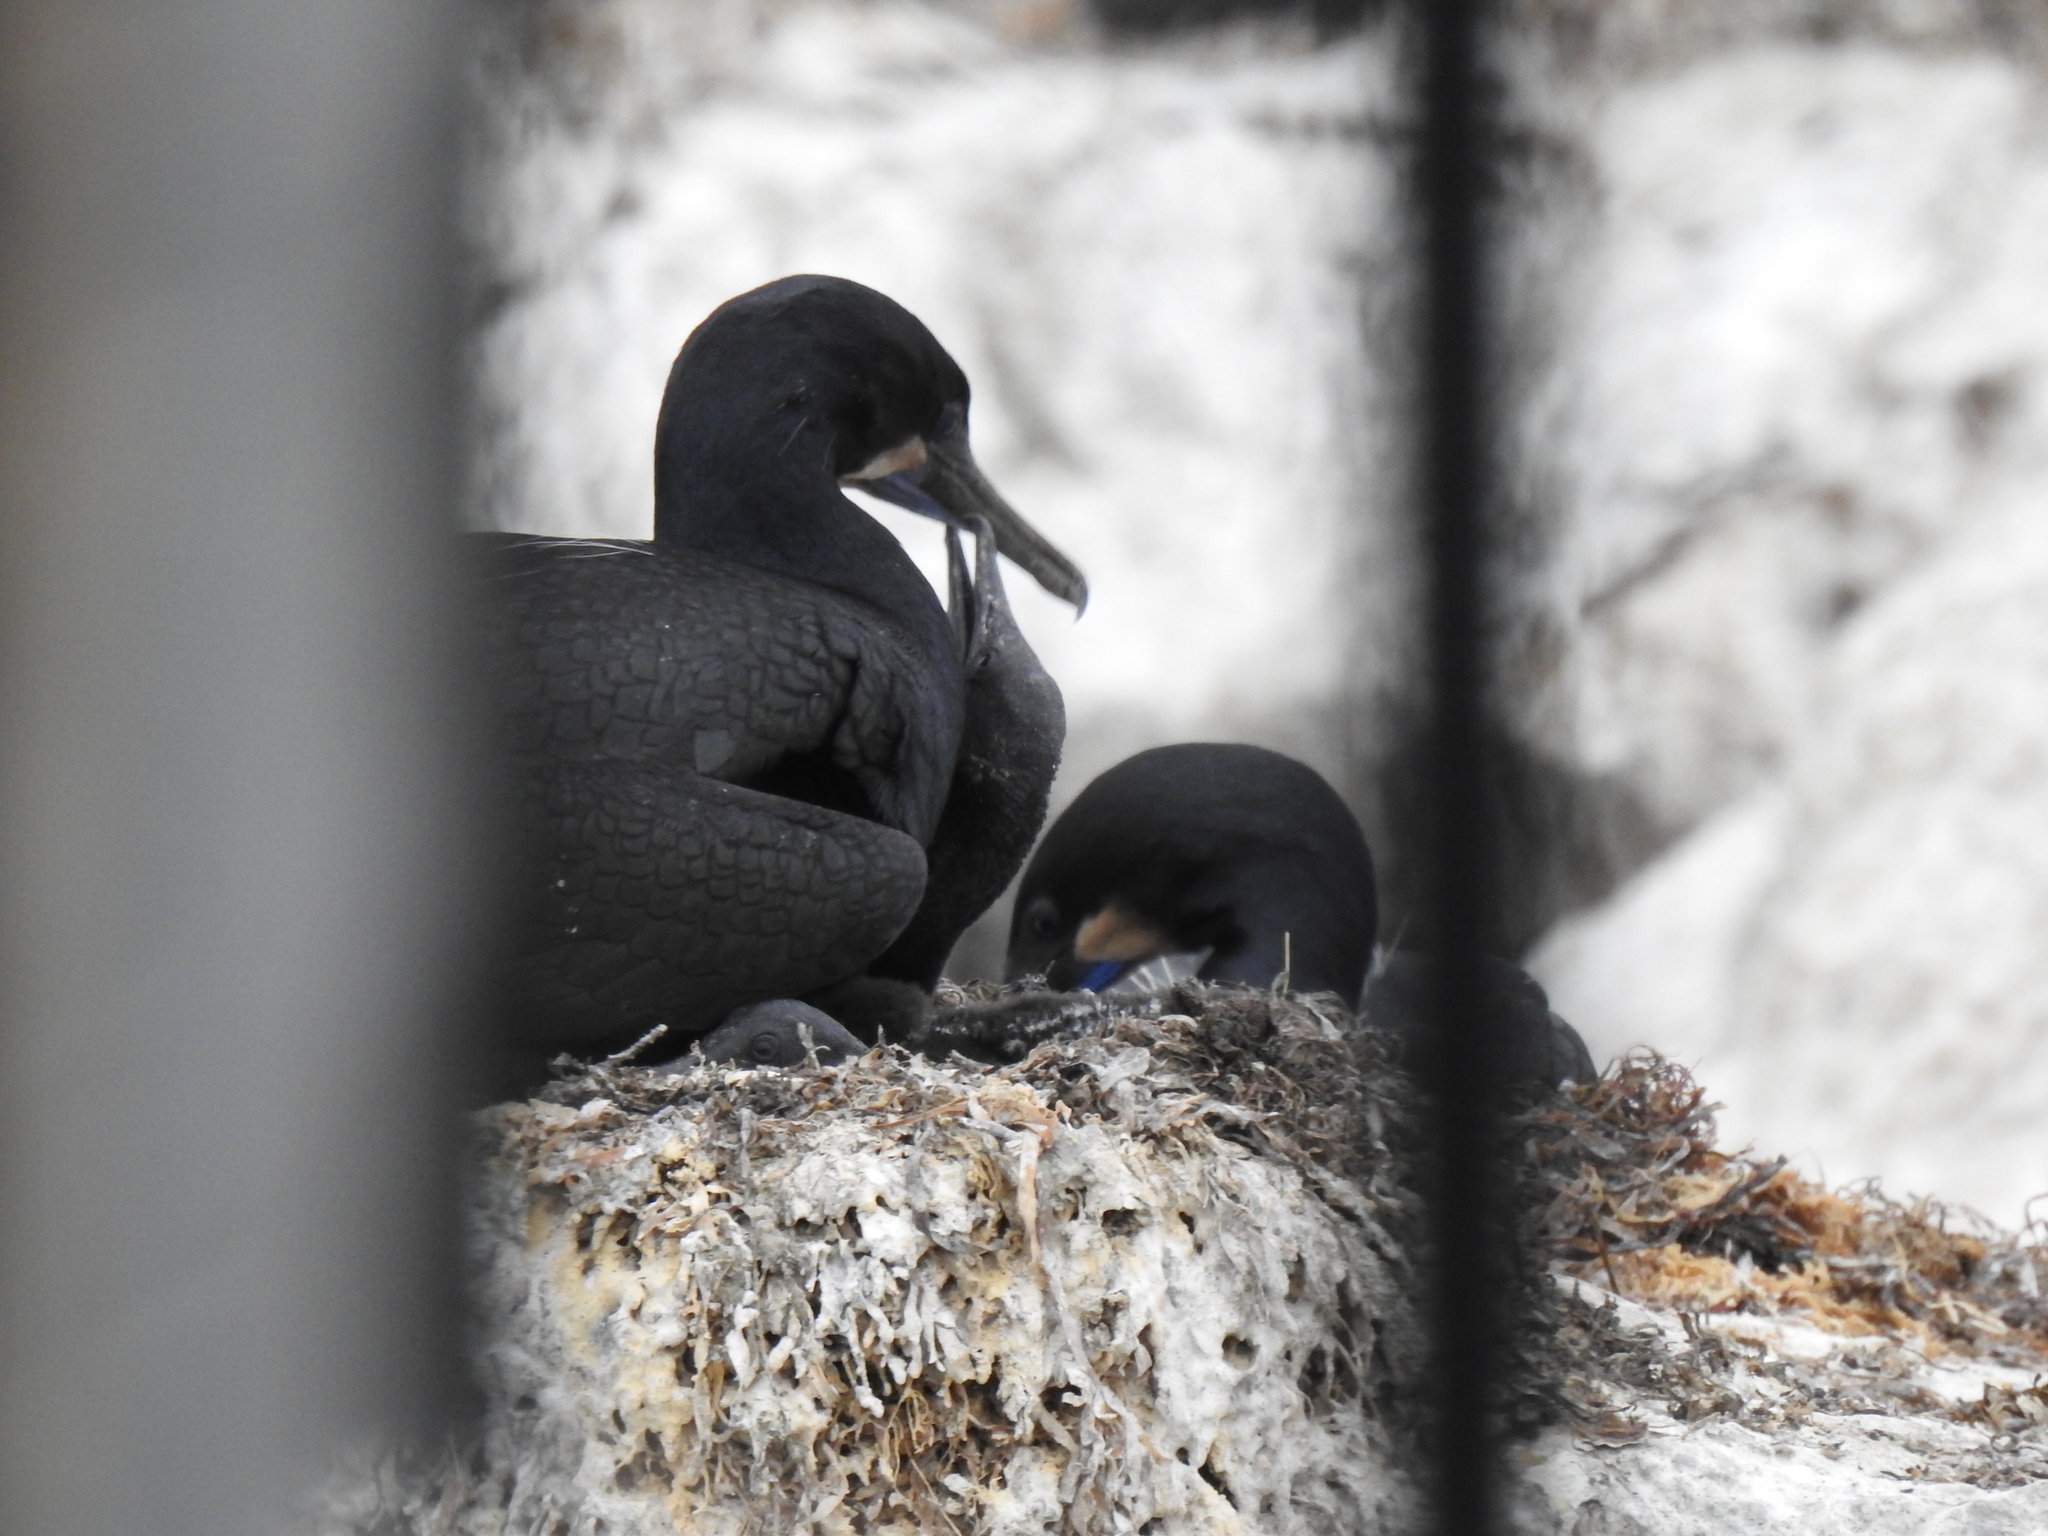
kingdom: Animalia
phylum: Chordata
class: Aves
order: Suliformes
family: Phalacrocoracidae
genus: Urile
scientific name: Urile penicillatus
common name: Brandt's cormorant
